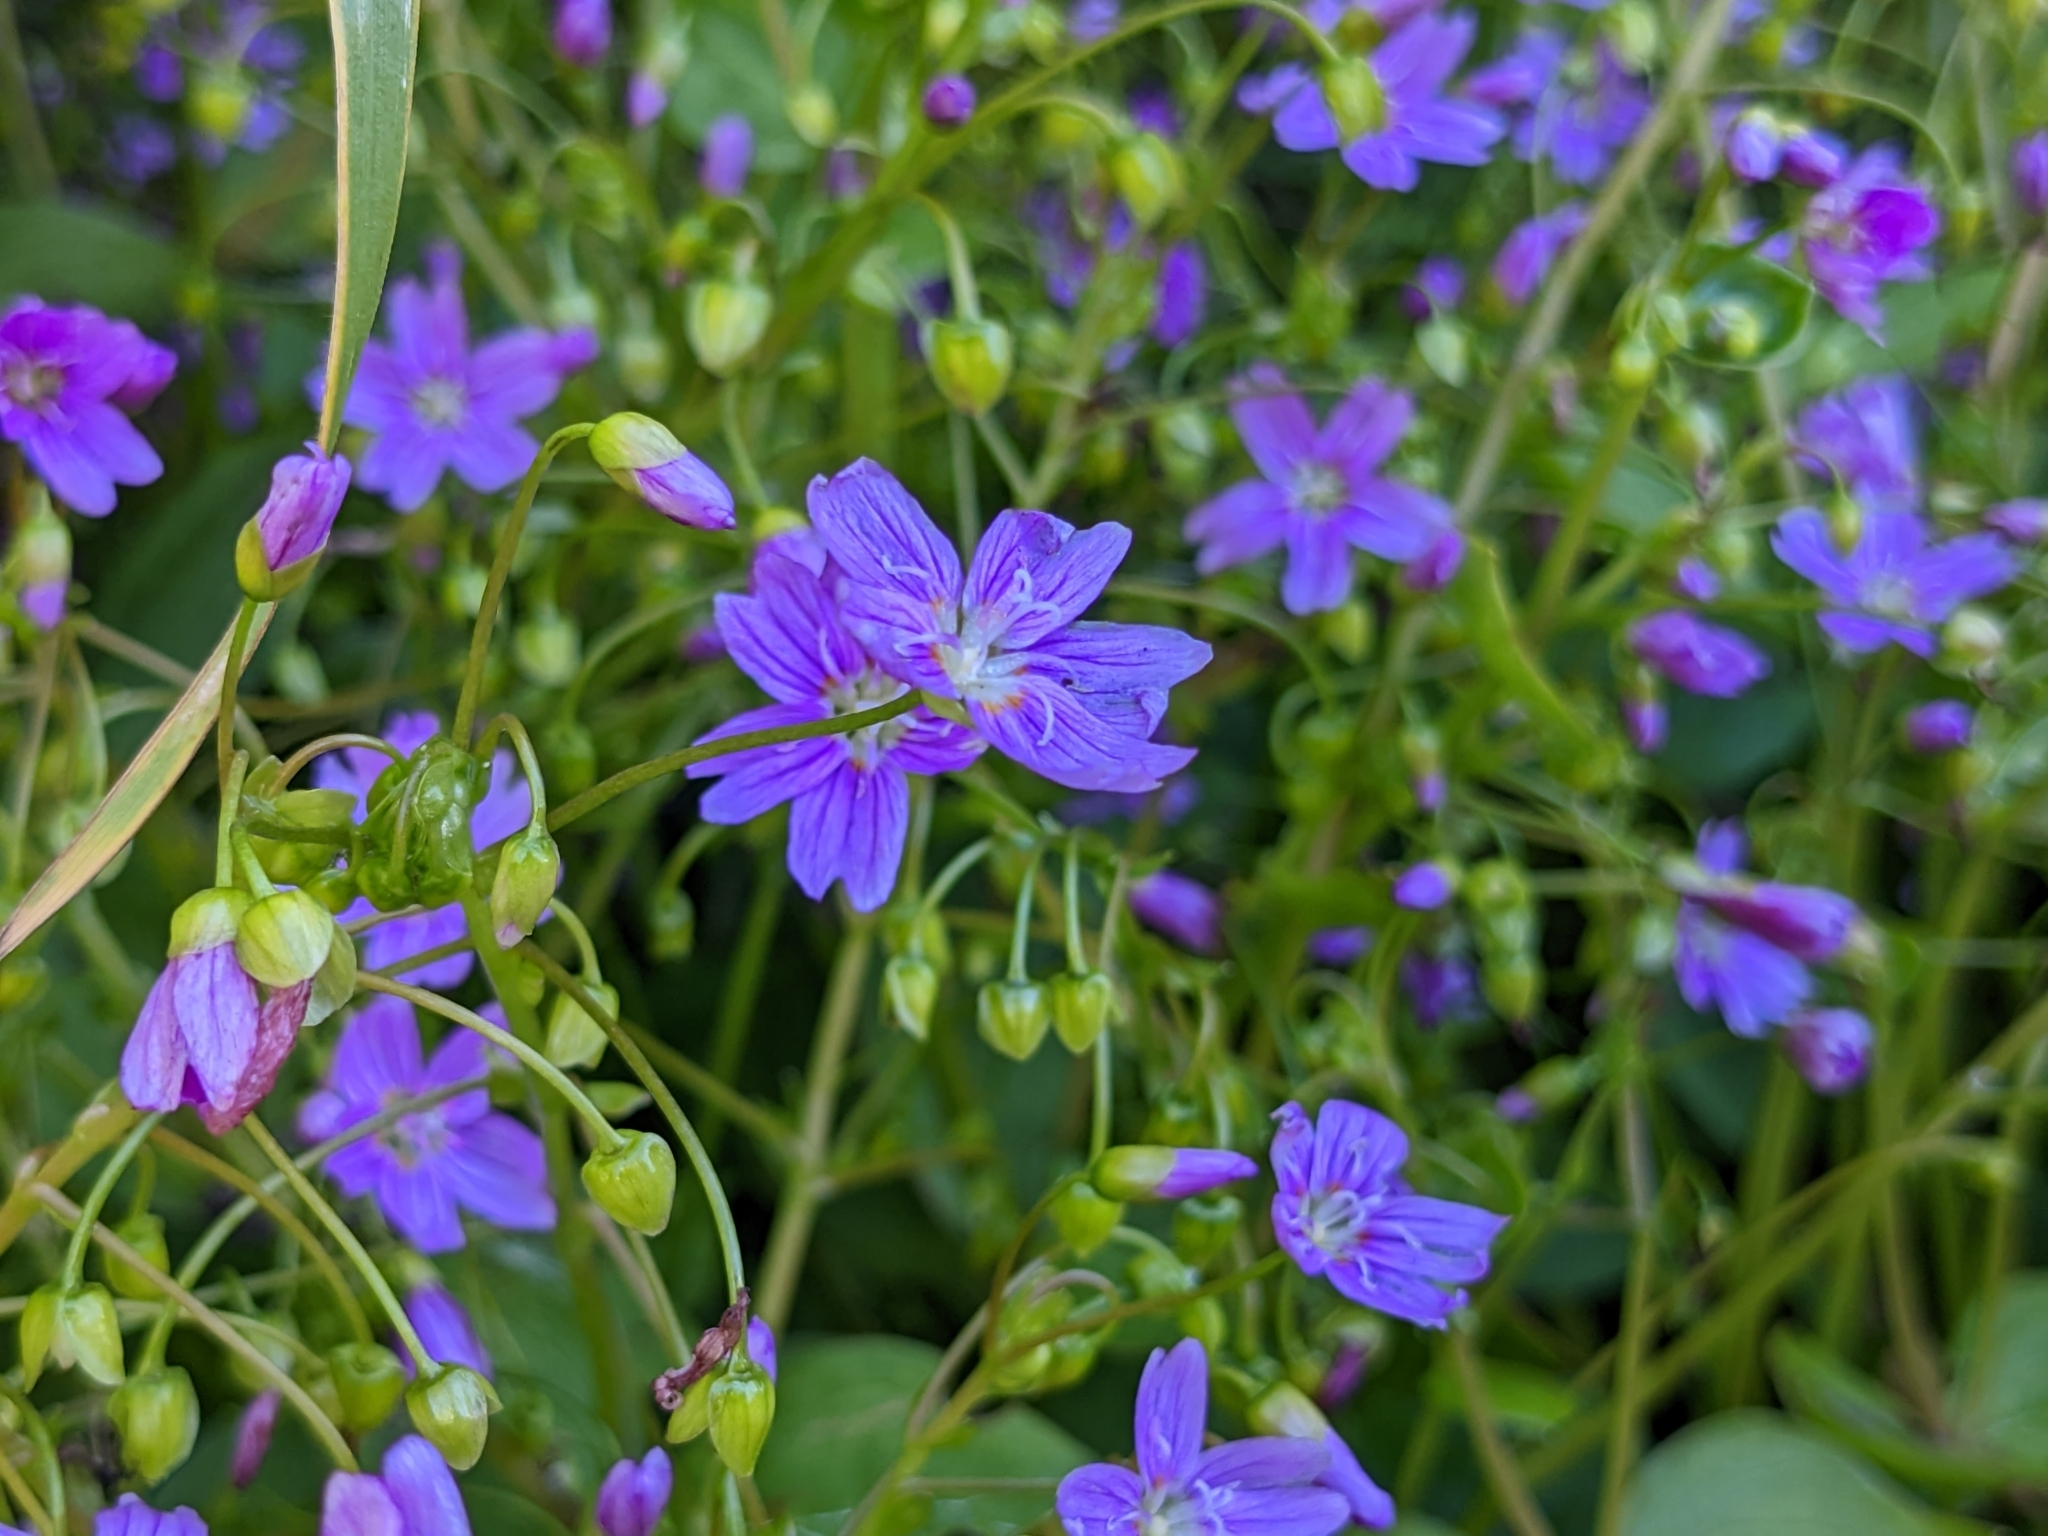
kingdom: Plantae
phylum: Tracheophyta
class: Magnoliopsida
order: Geraniales
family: Geraniaceae
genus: Geranium
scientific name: Geranium sylvaticum
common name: Wood crane's-bill
